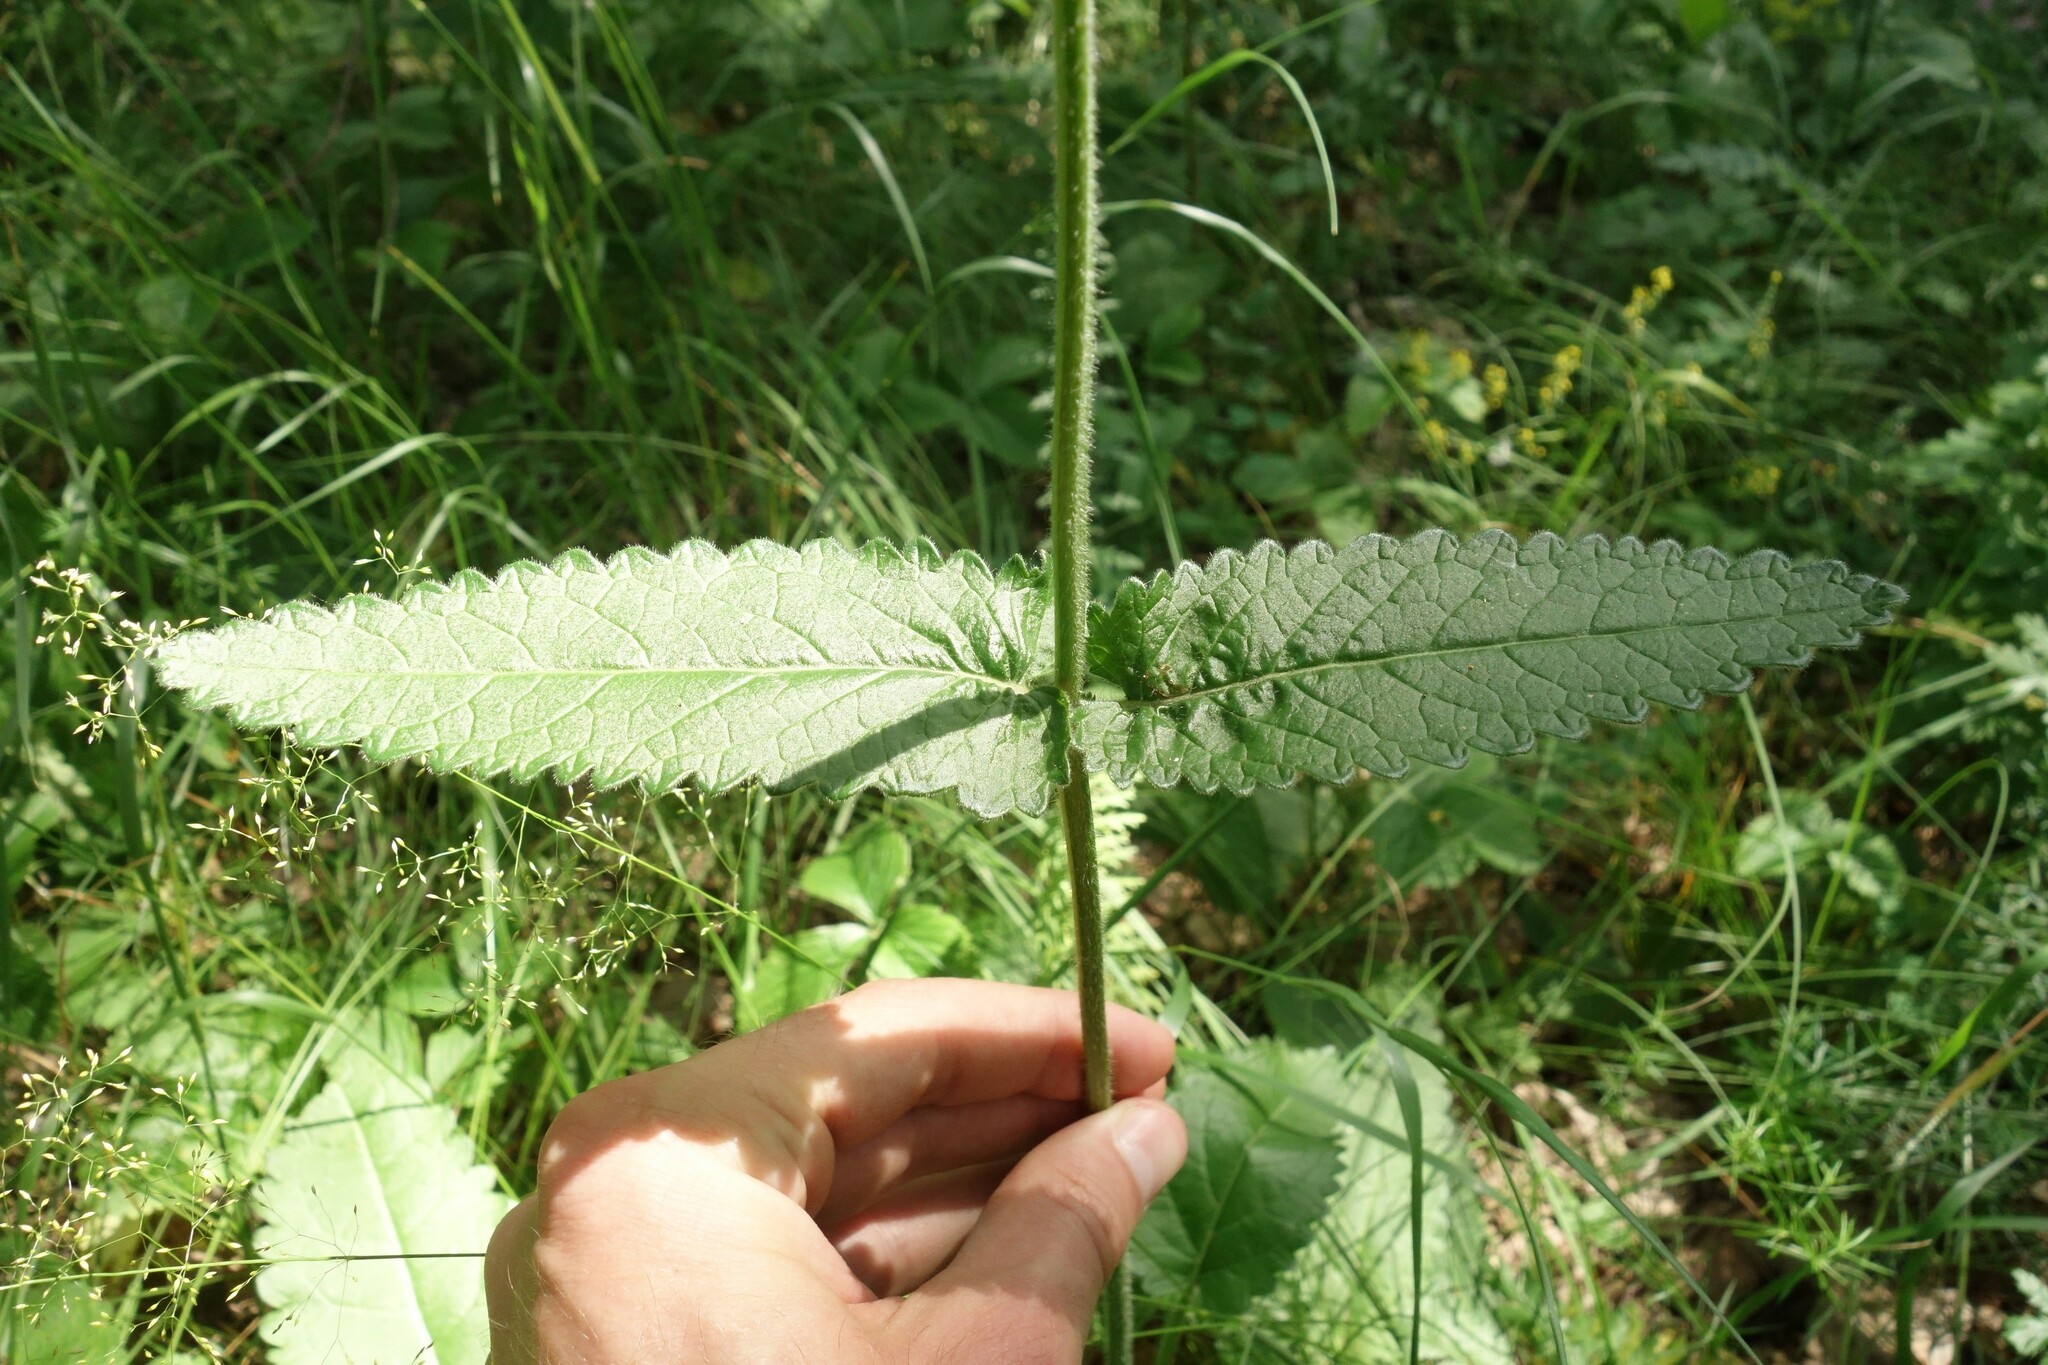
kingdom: Plantae
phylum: Tracheophyta
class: Magnoliopsida
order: Lamiales
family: Lamiaceae
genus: Betonica
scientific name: Betonica officinalis
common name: Bishop's-wort
